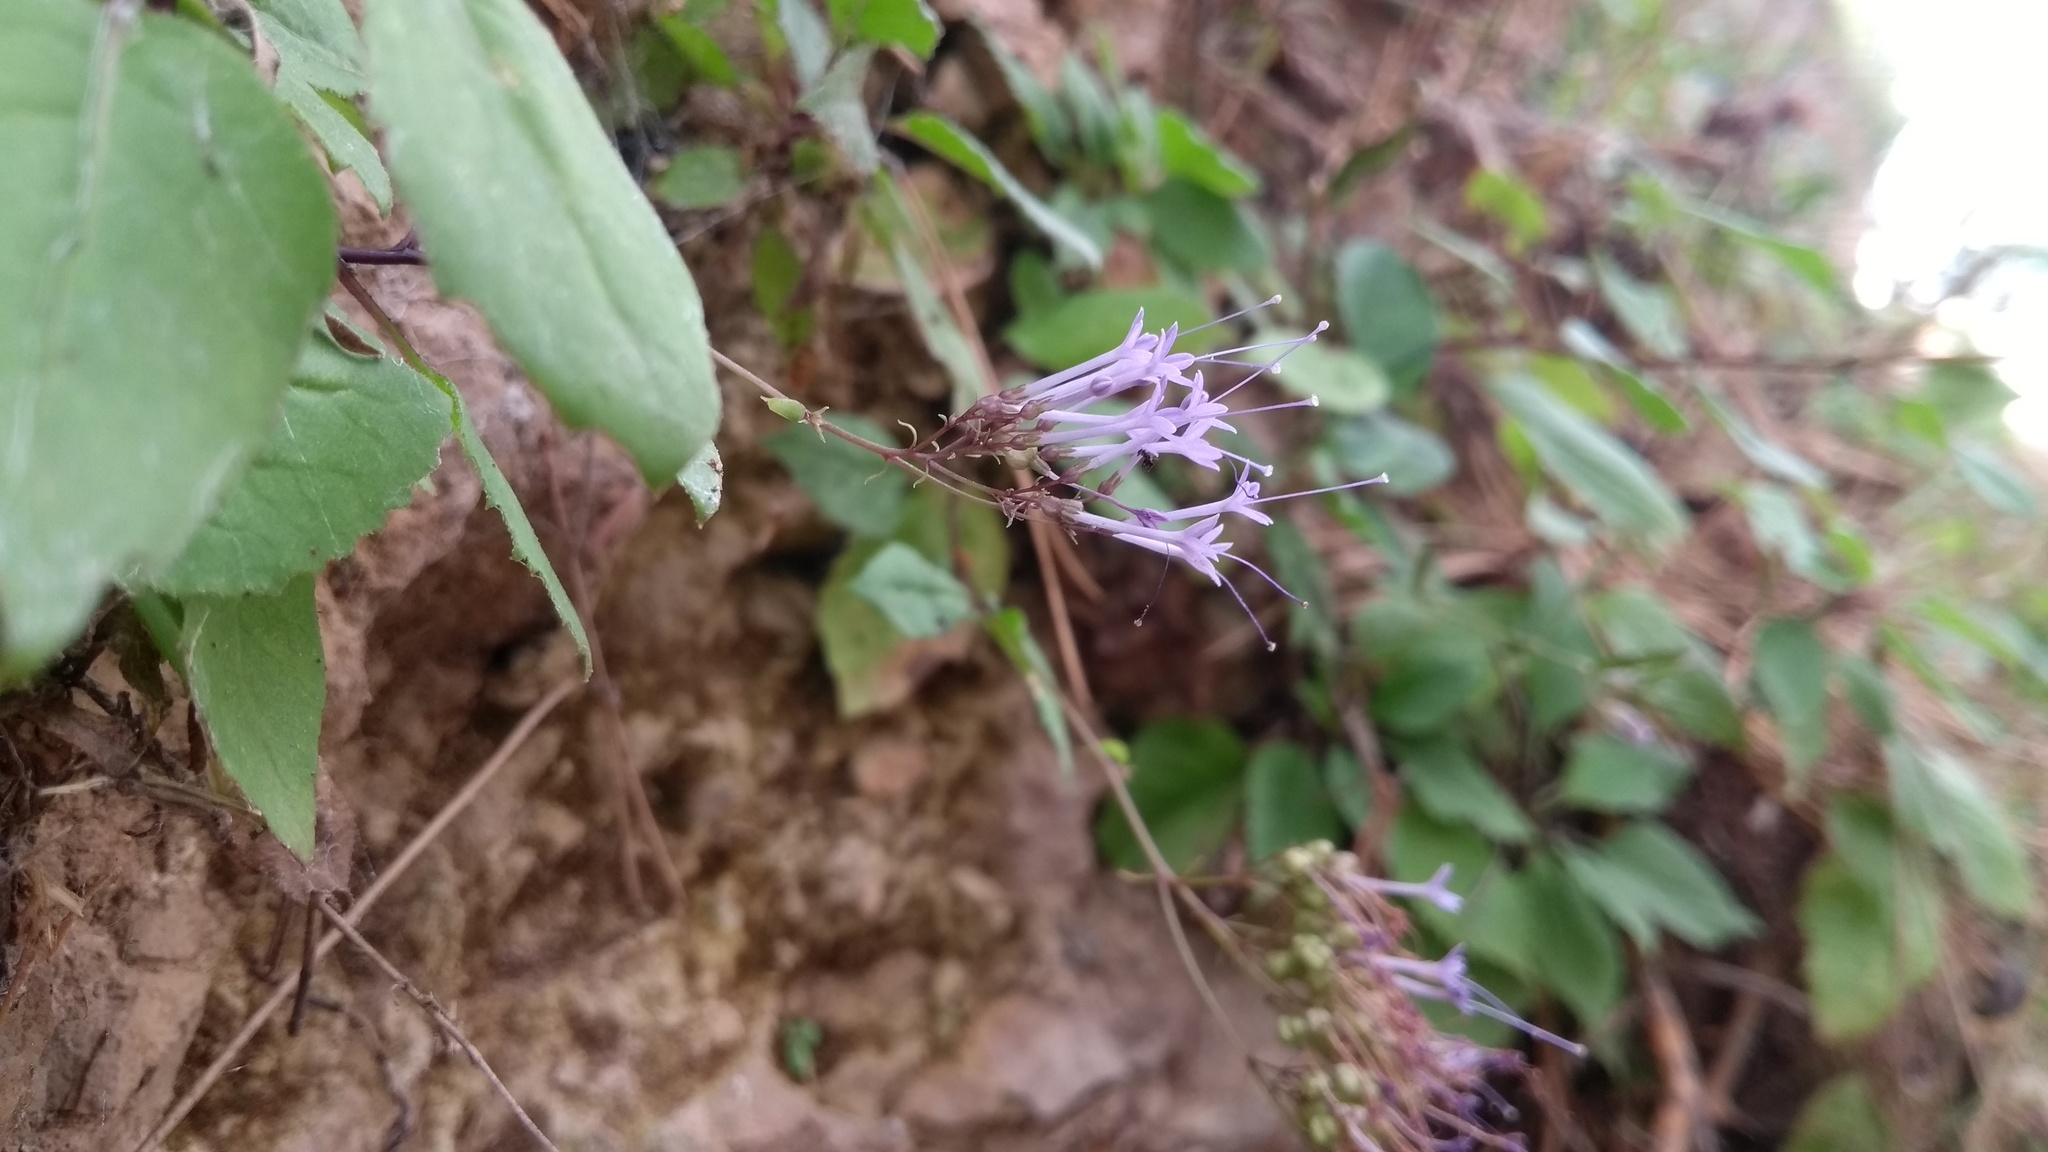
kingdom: Plantae
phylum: Tracheophyta
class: Magnoliopsida
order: Asterales
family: Campanulaceae
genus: Trachelium
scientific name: Trachelium caeruleum
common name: Throatwort
